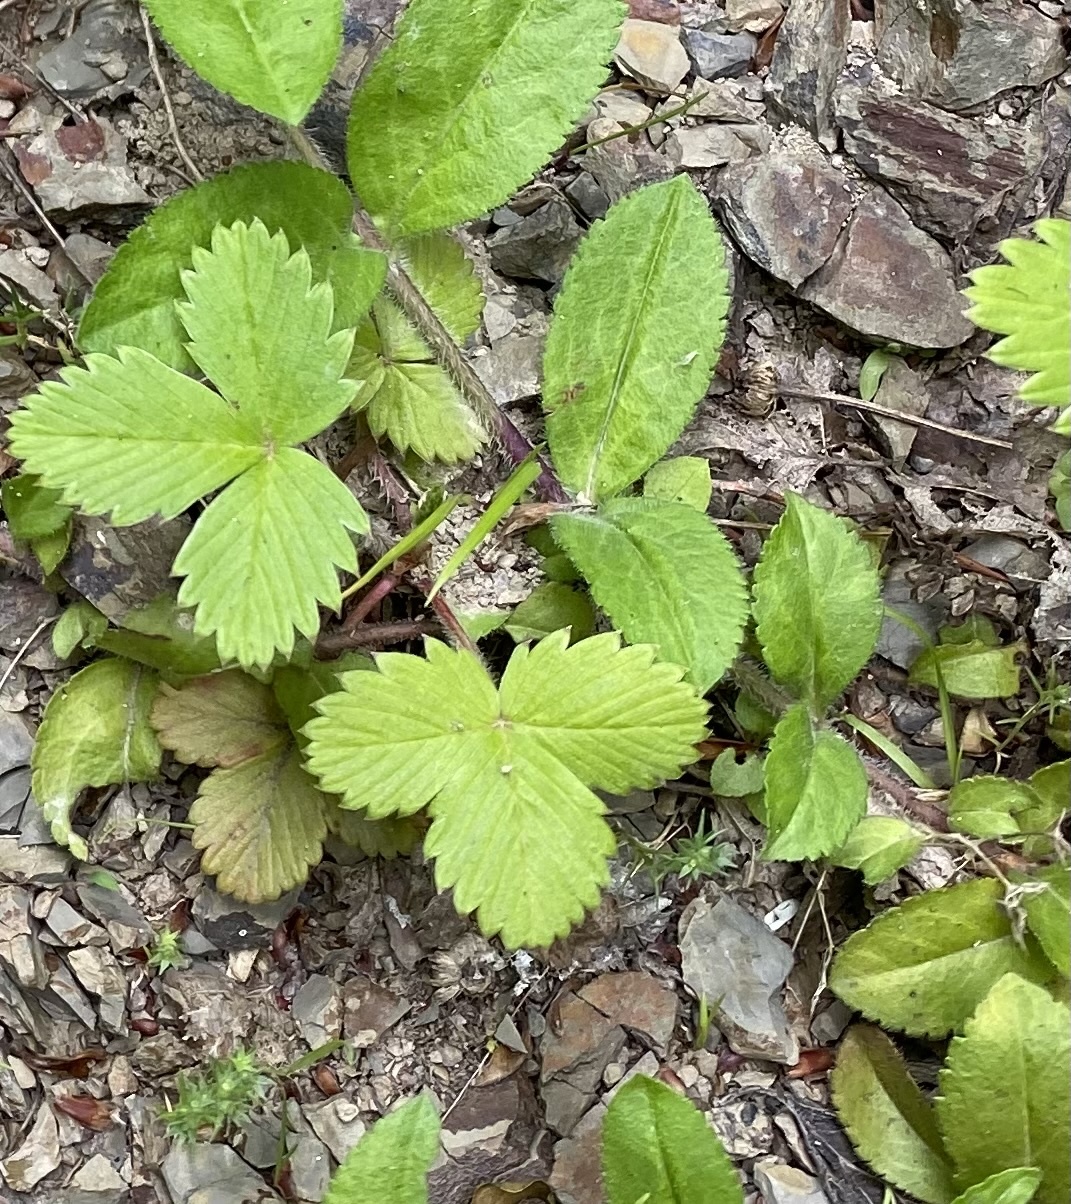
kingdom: Plantae
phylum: Tracheophyta
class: Magnoliopsida
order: Rosales
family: Rosaceae
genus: Fragaria
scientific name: Fragaria vesca
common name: Wild strawberry
